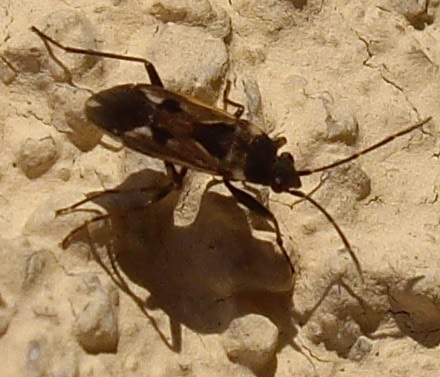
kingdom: Animalia
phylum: Arthropoda
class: Insecta
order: Hemiptera
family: Rhyparochromidae
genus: Rhyparochromus
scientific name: Rhyparochromus vulgaris
